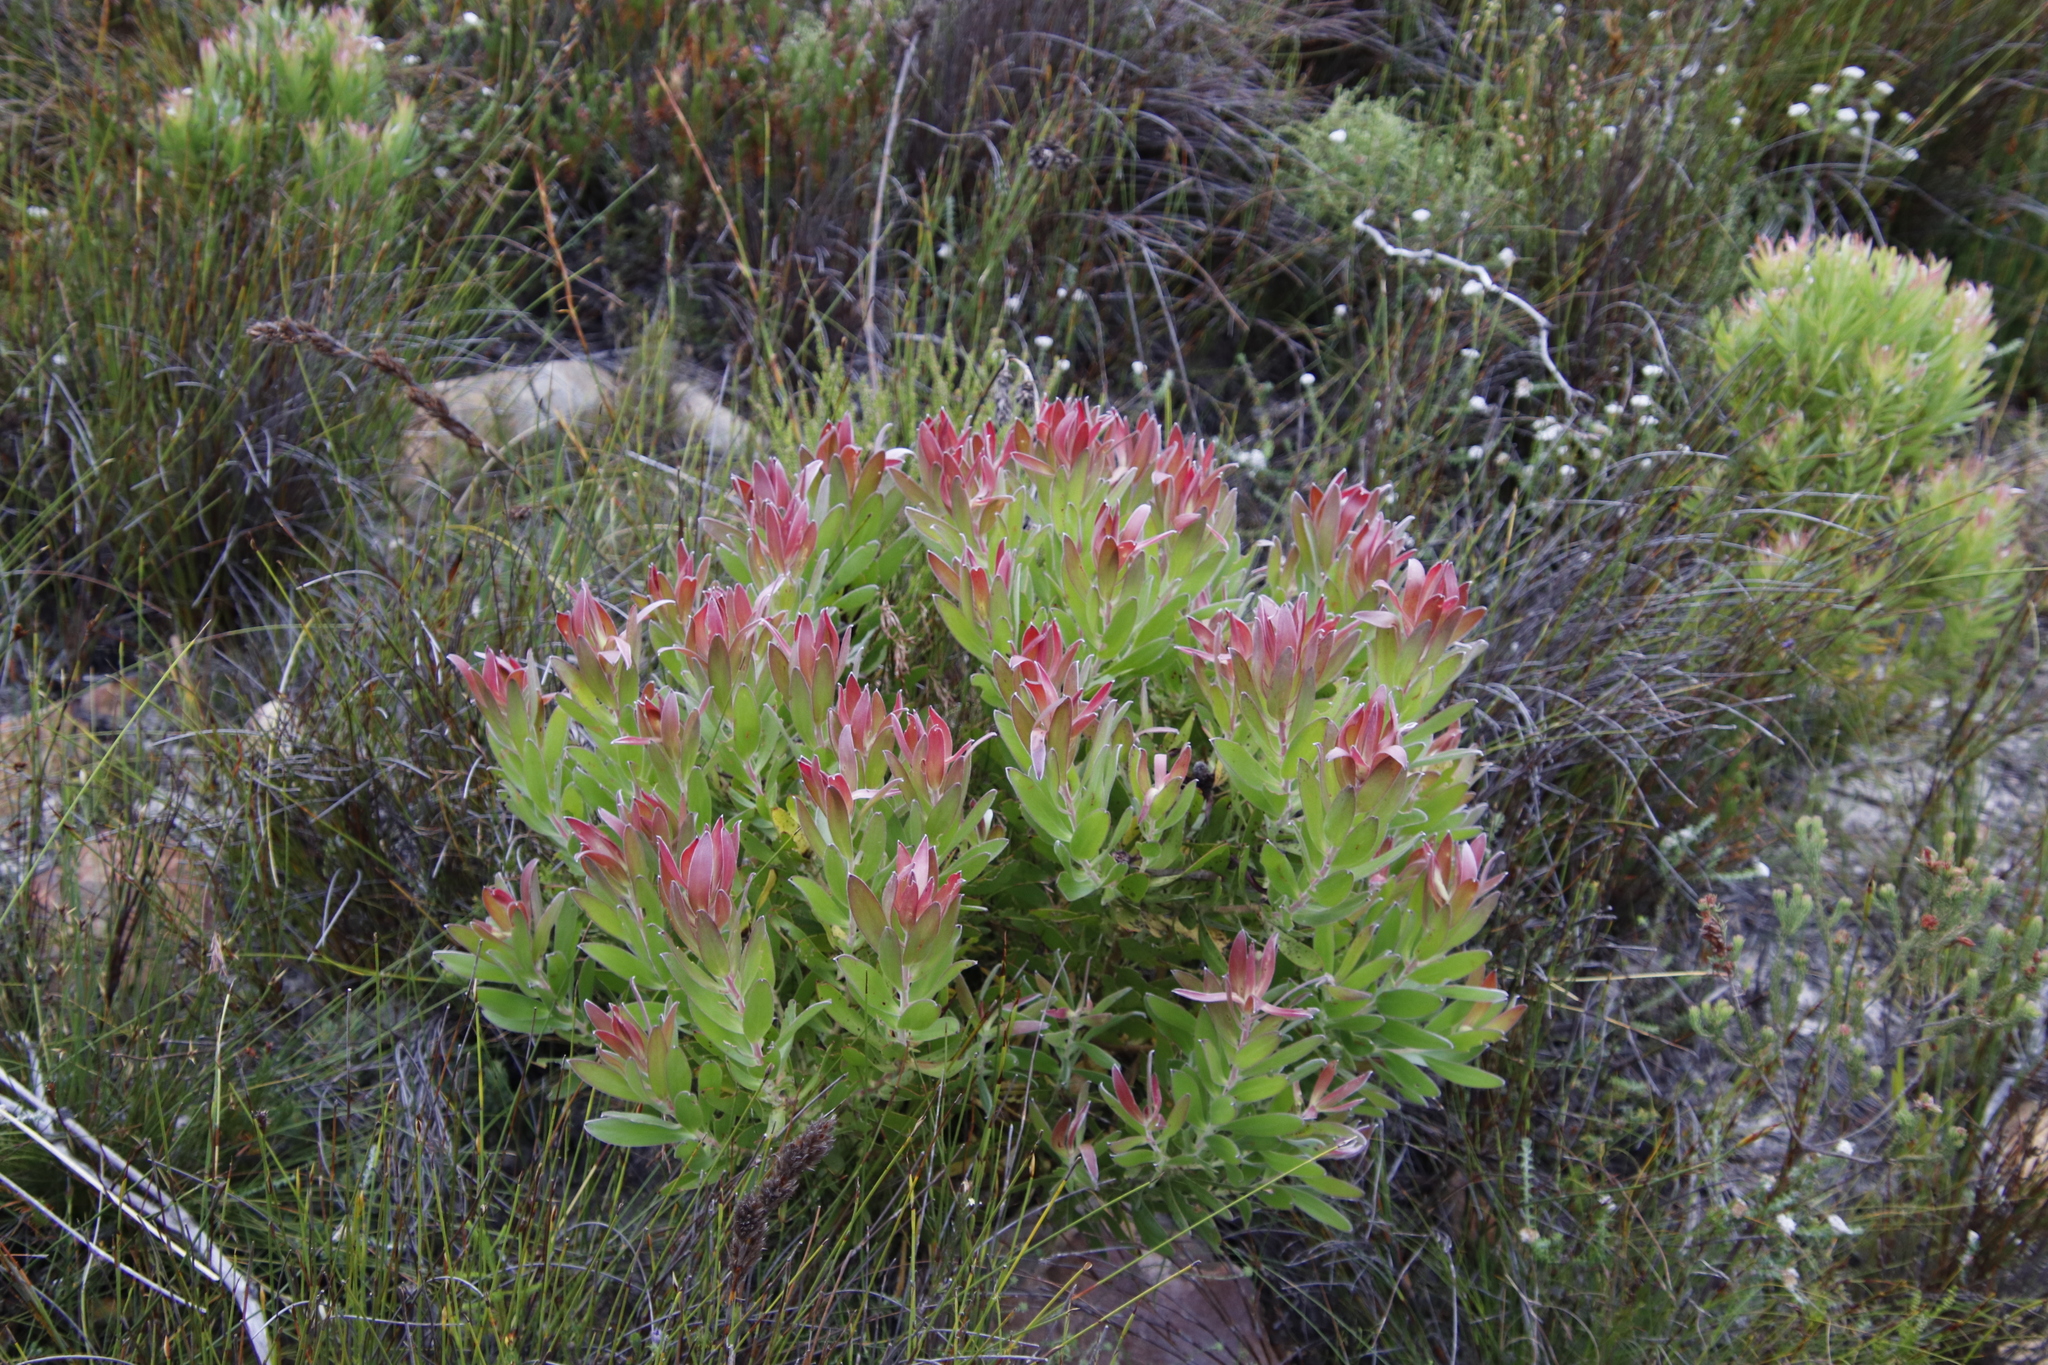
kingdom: Plantae
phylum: Tracheophyta
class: Magnoliopsida
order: Proteales
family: Proteaceae
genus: Leucadendron
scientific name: Leucadendron
